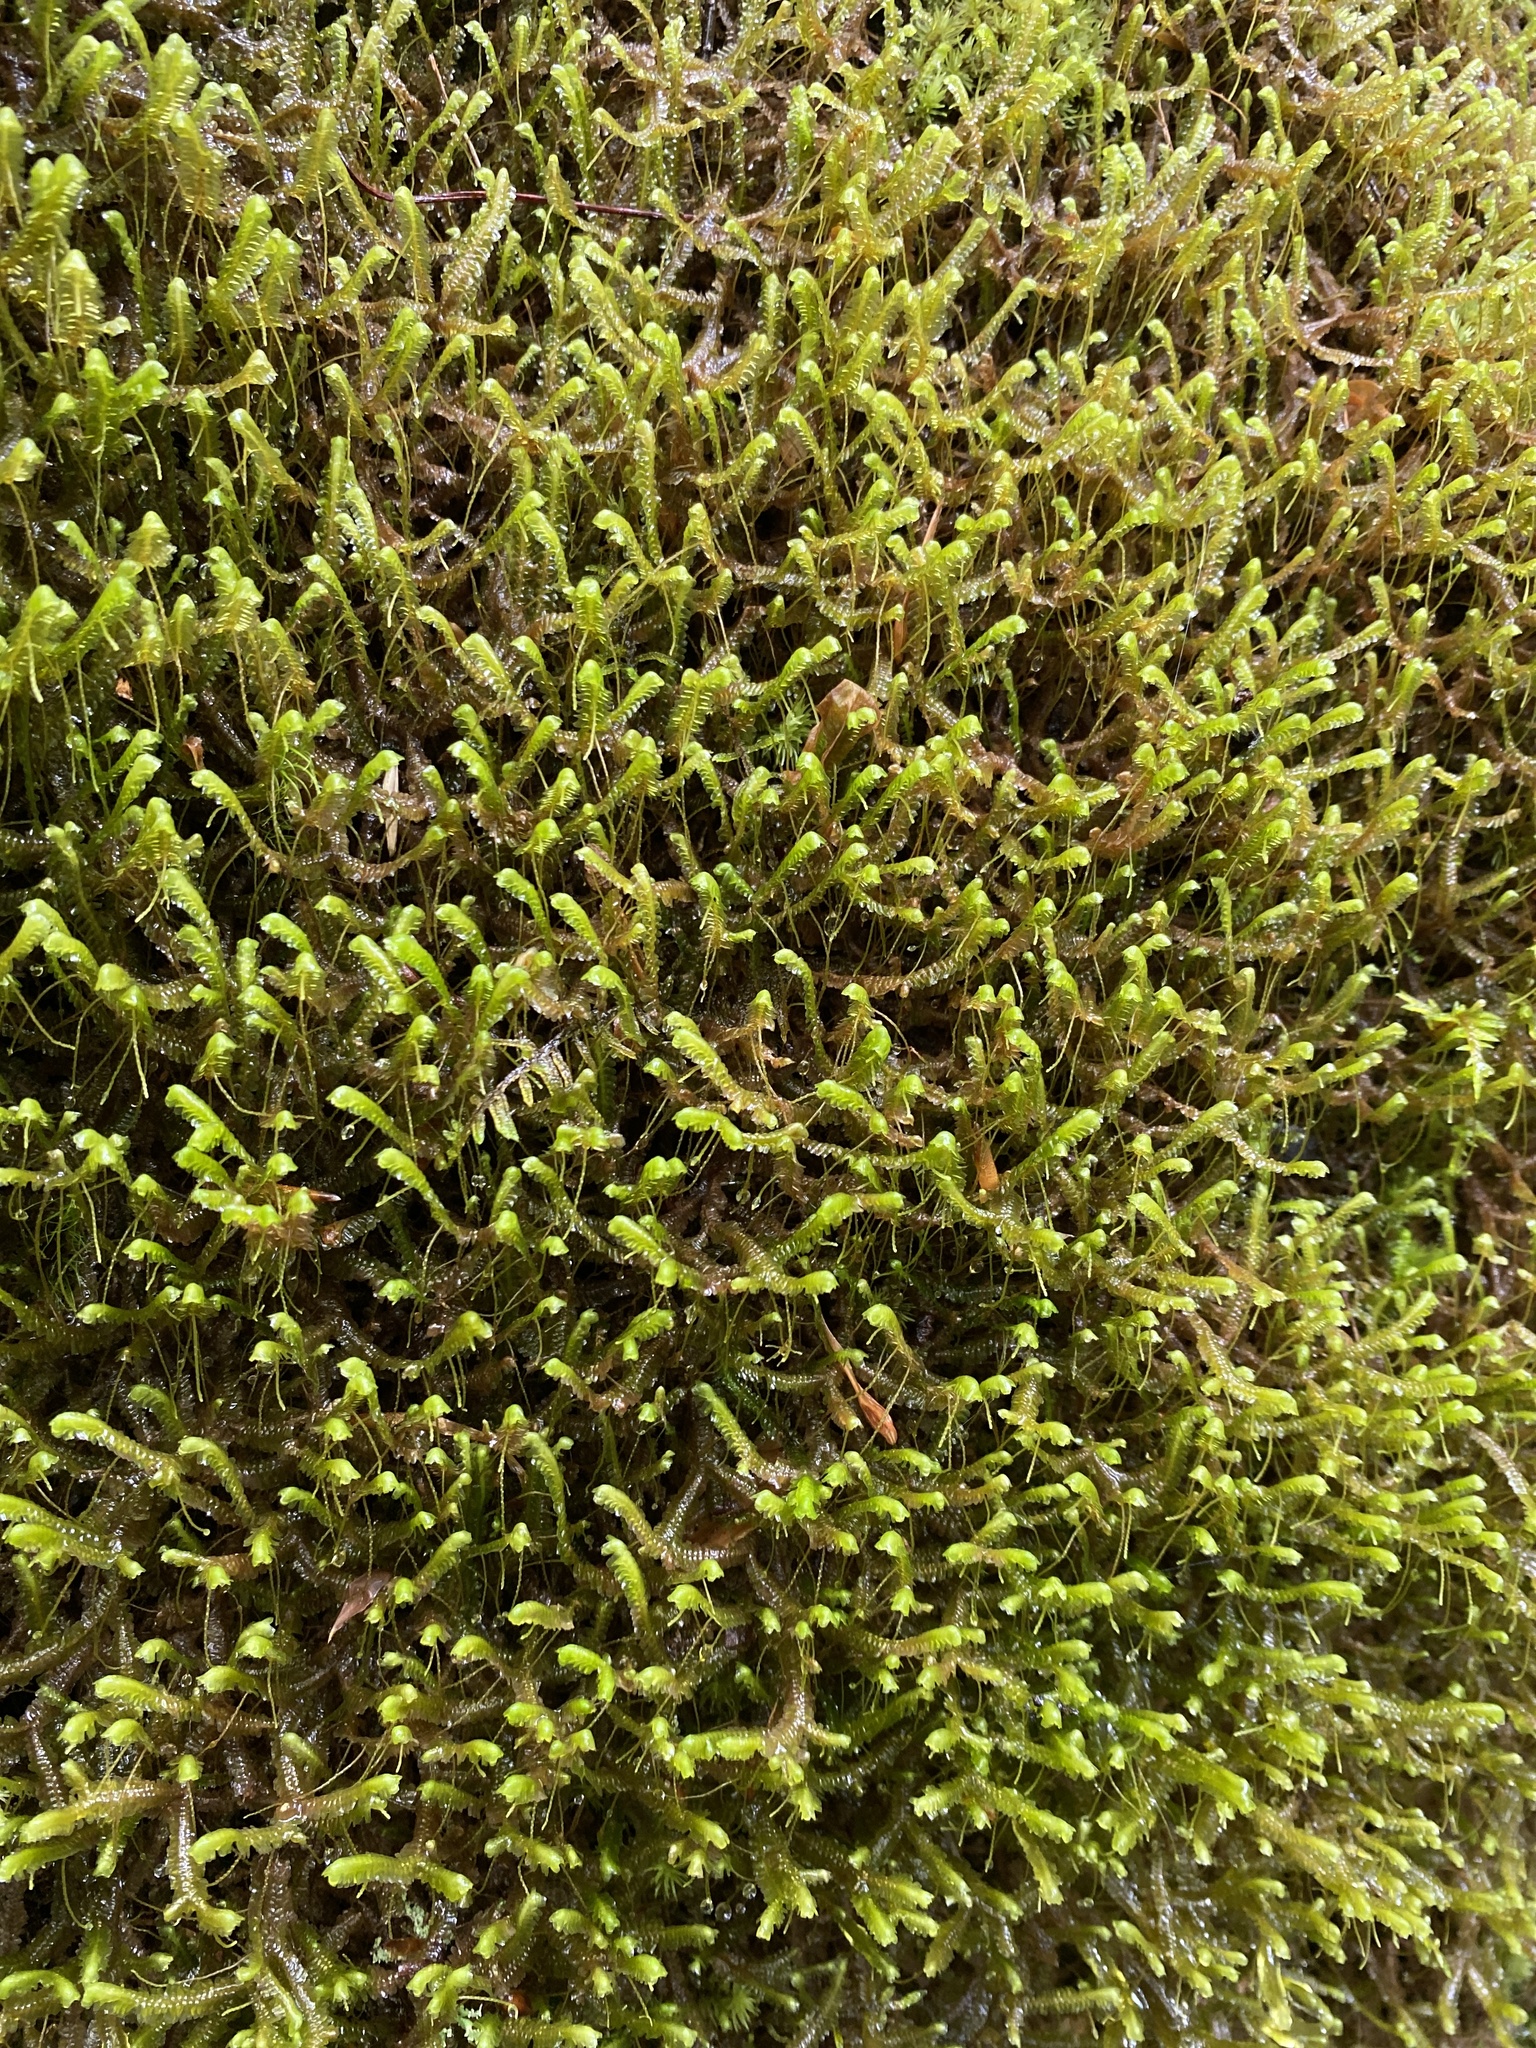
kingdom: Plantae
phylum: Marchantiophyta
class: Jungermanniopsida
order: Jungermanniales
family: Lepidoziaceae
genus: Bazzania
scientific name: Bazzania trilobata
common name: Three-lobed whipwort
